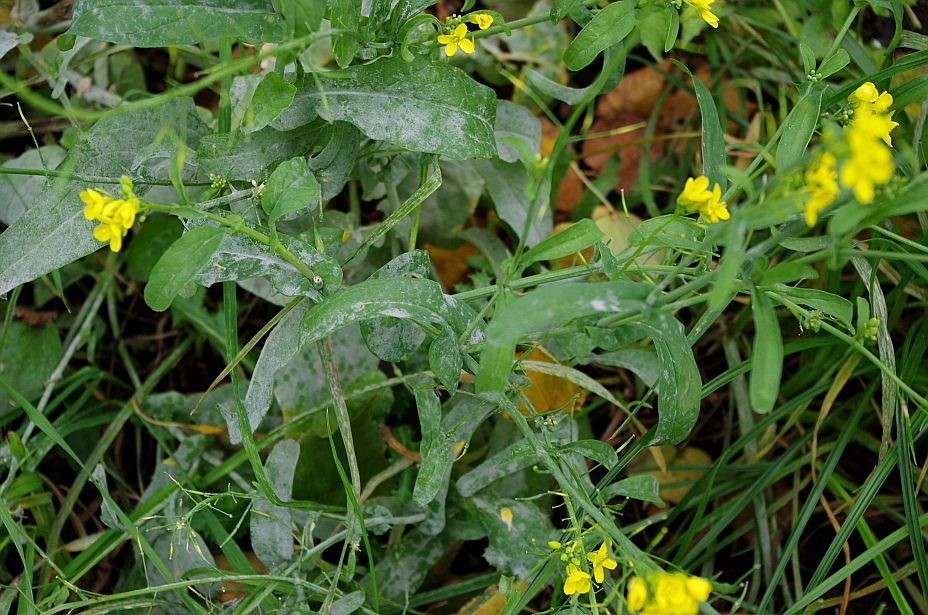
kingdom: Plantae
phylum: Tracheophyta
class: Magnoliopsida
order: Brassicales
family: Brassicaceae
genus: Brassica
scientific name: Brassica rapa
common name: Field mustard
